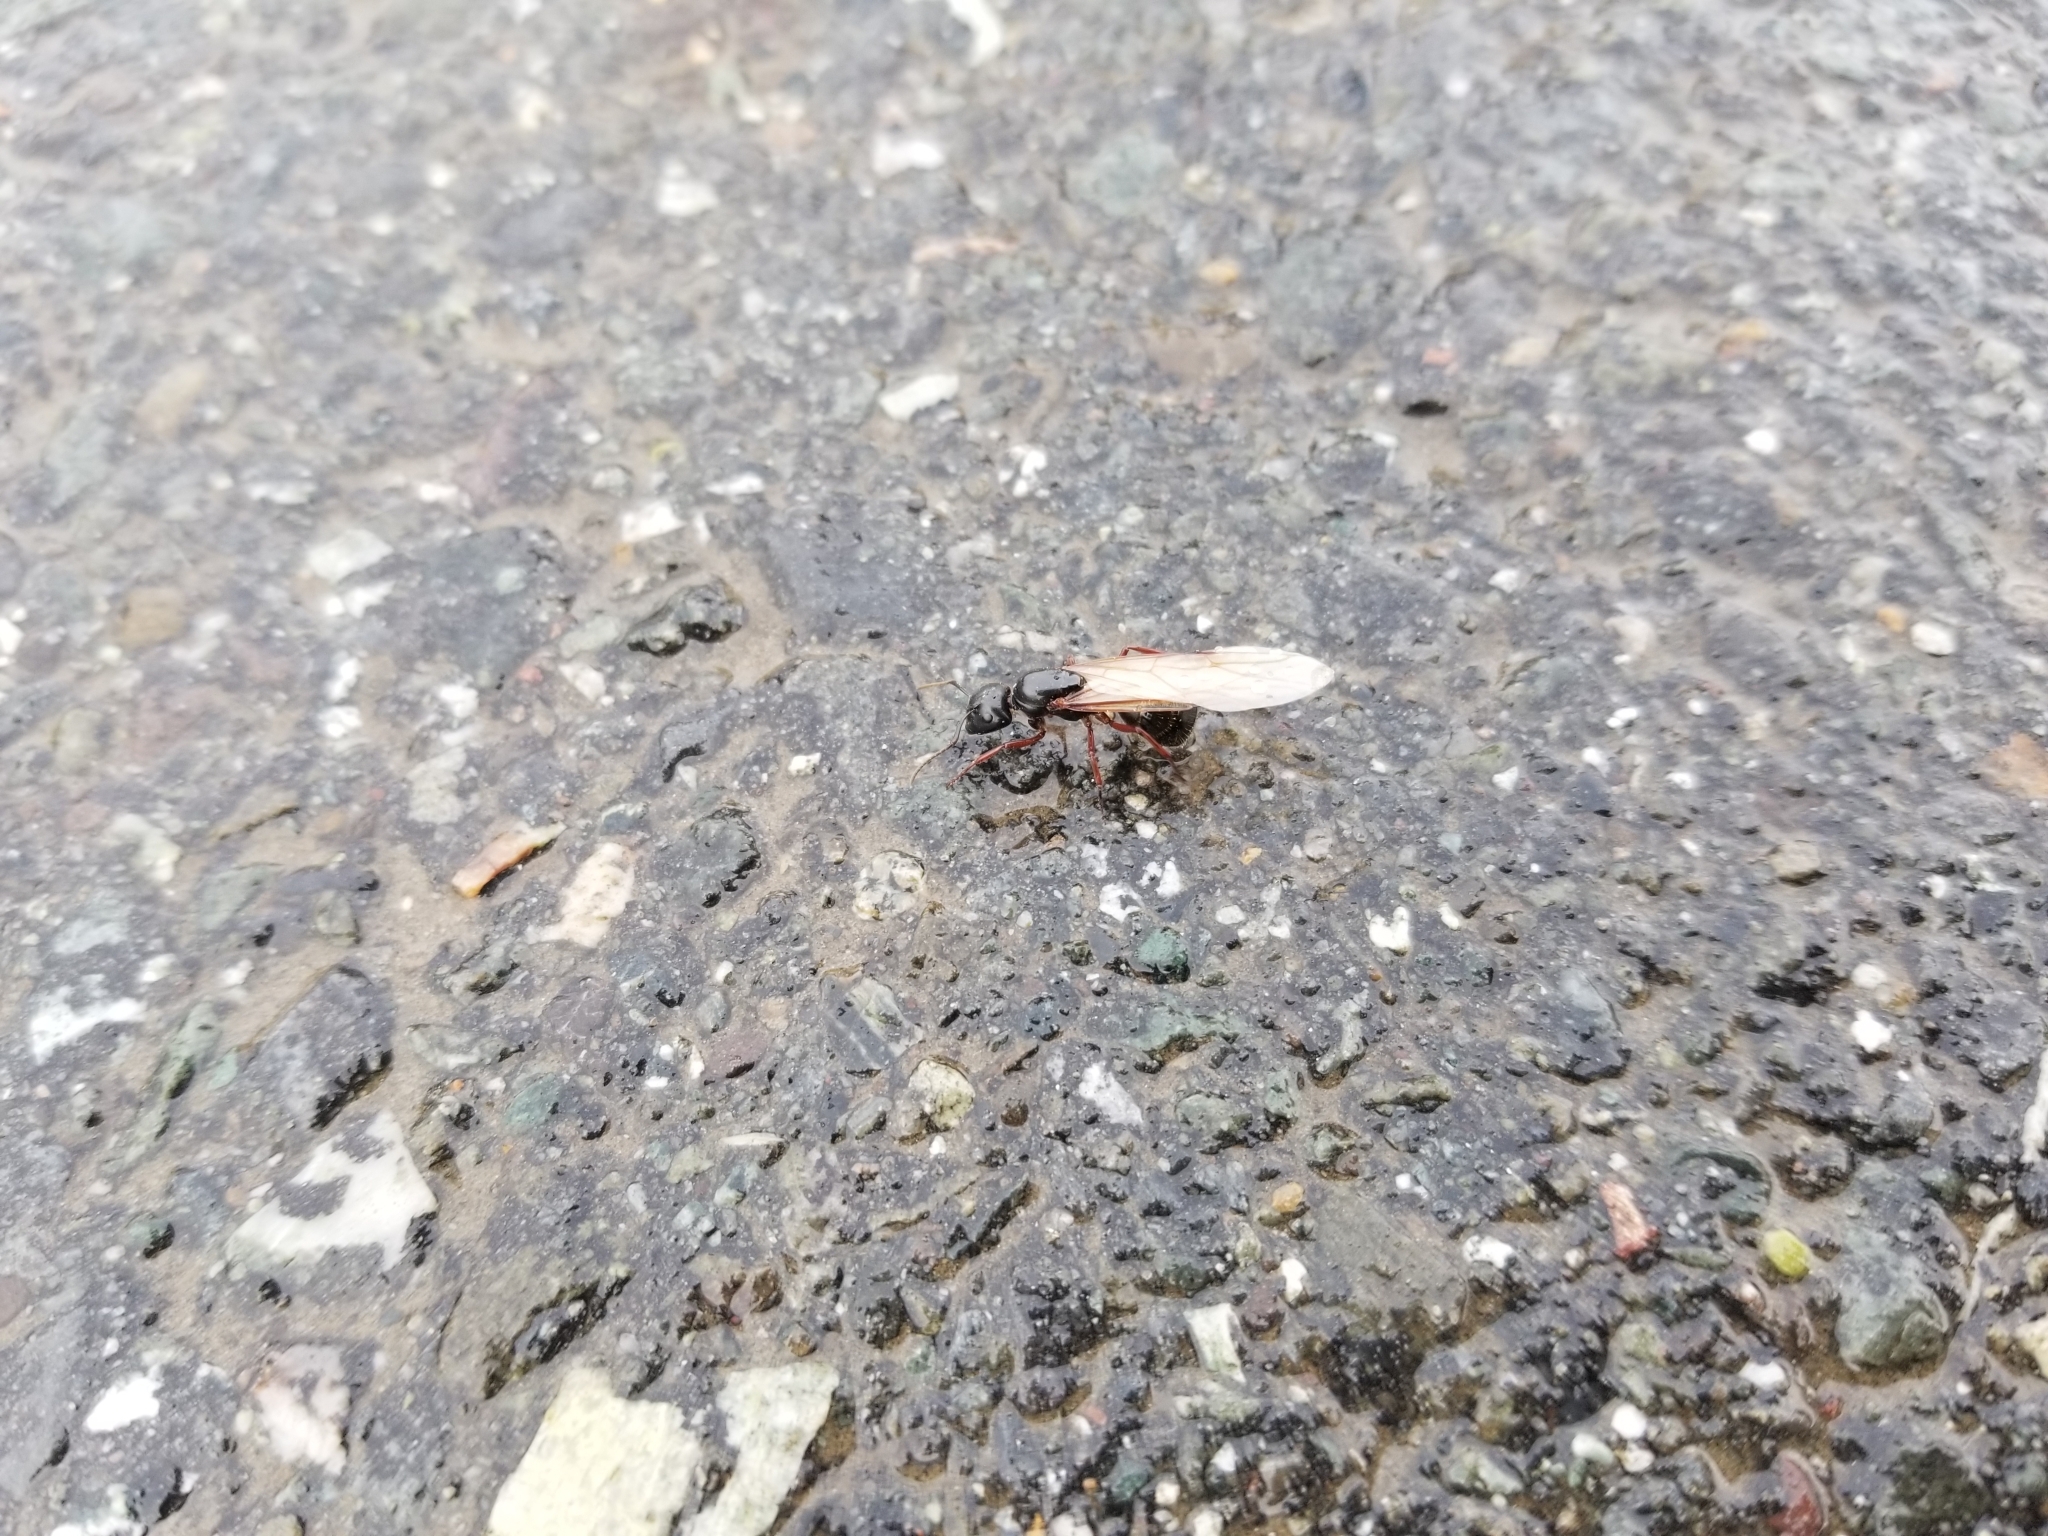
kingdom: Animalia
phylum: Arthropoda
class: Insecta
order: Hymenoptera
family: Formicidae
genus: Camponotus
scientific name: Camponotus herculeanus
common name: Hercules ant
